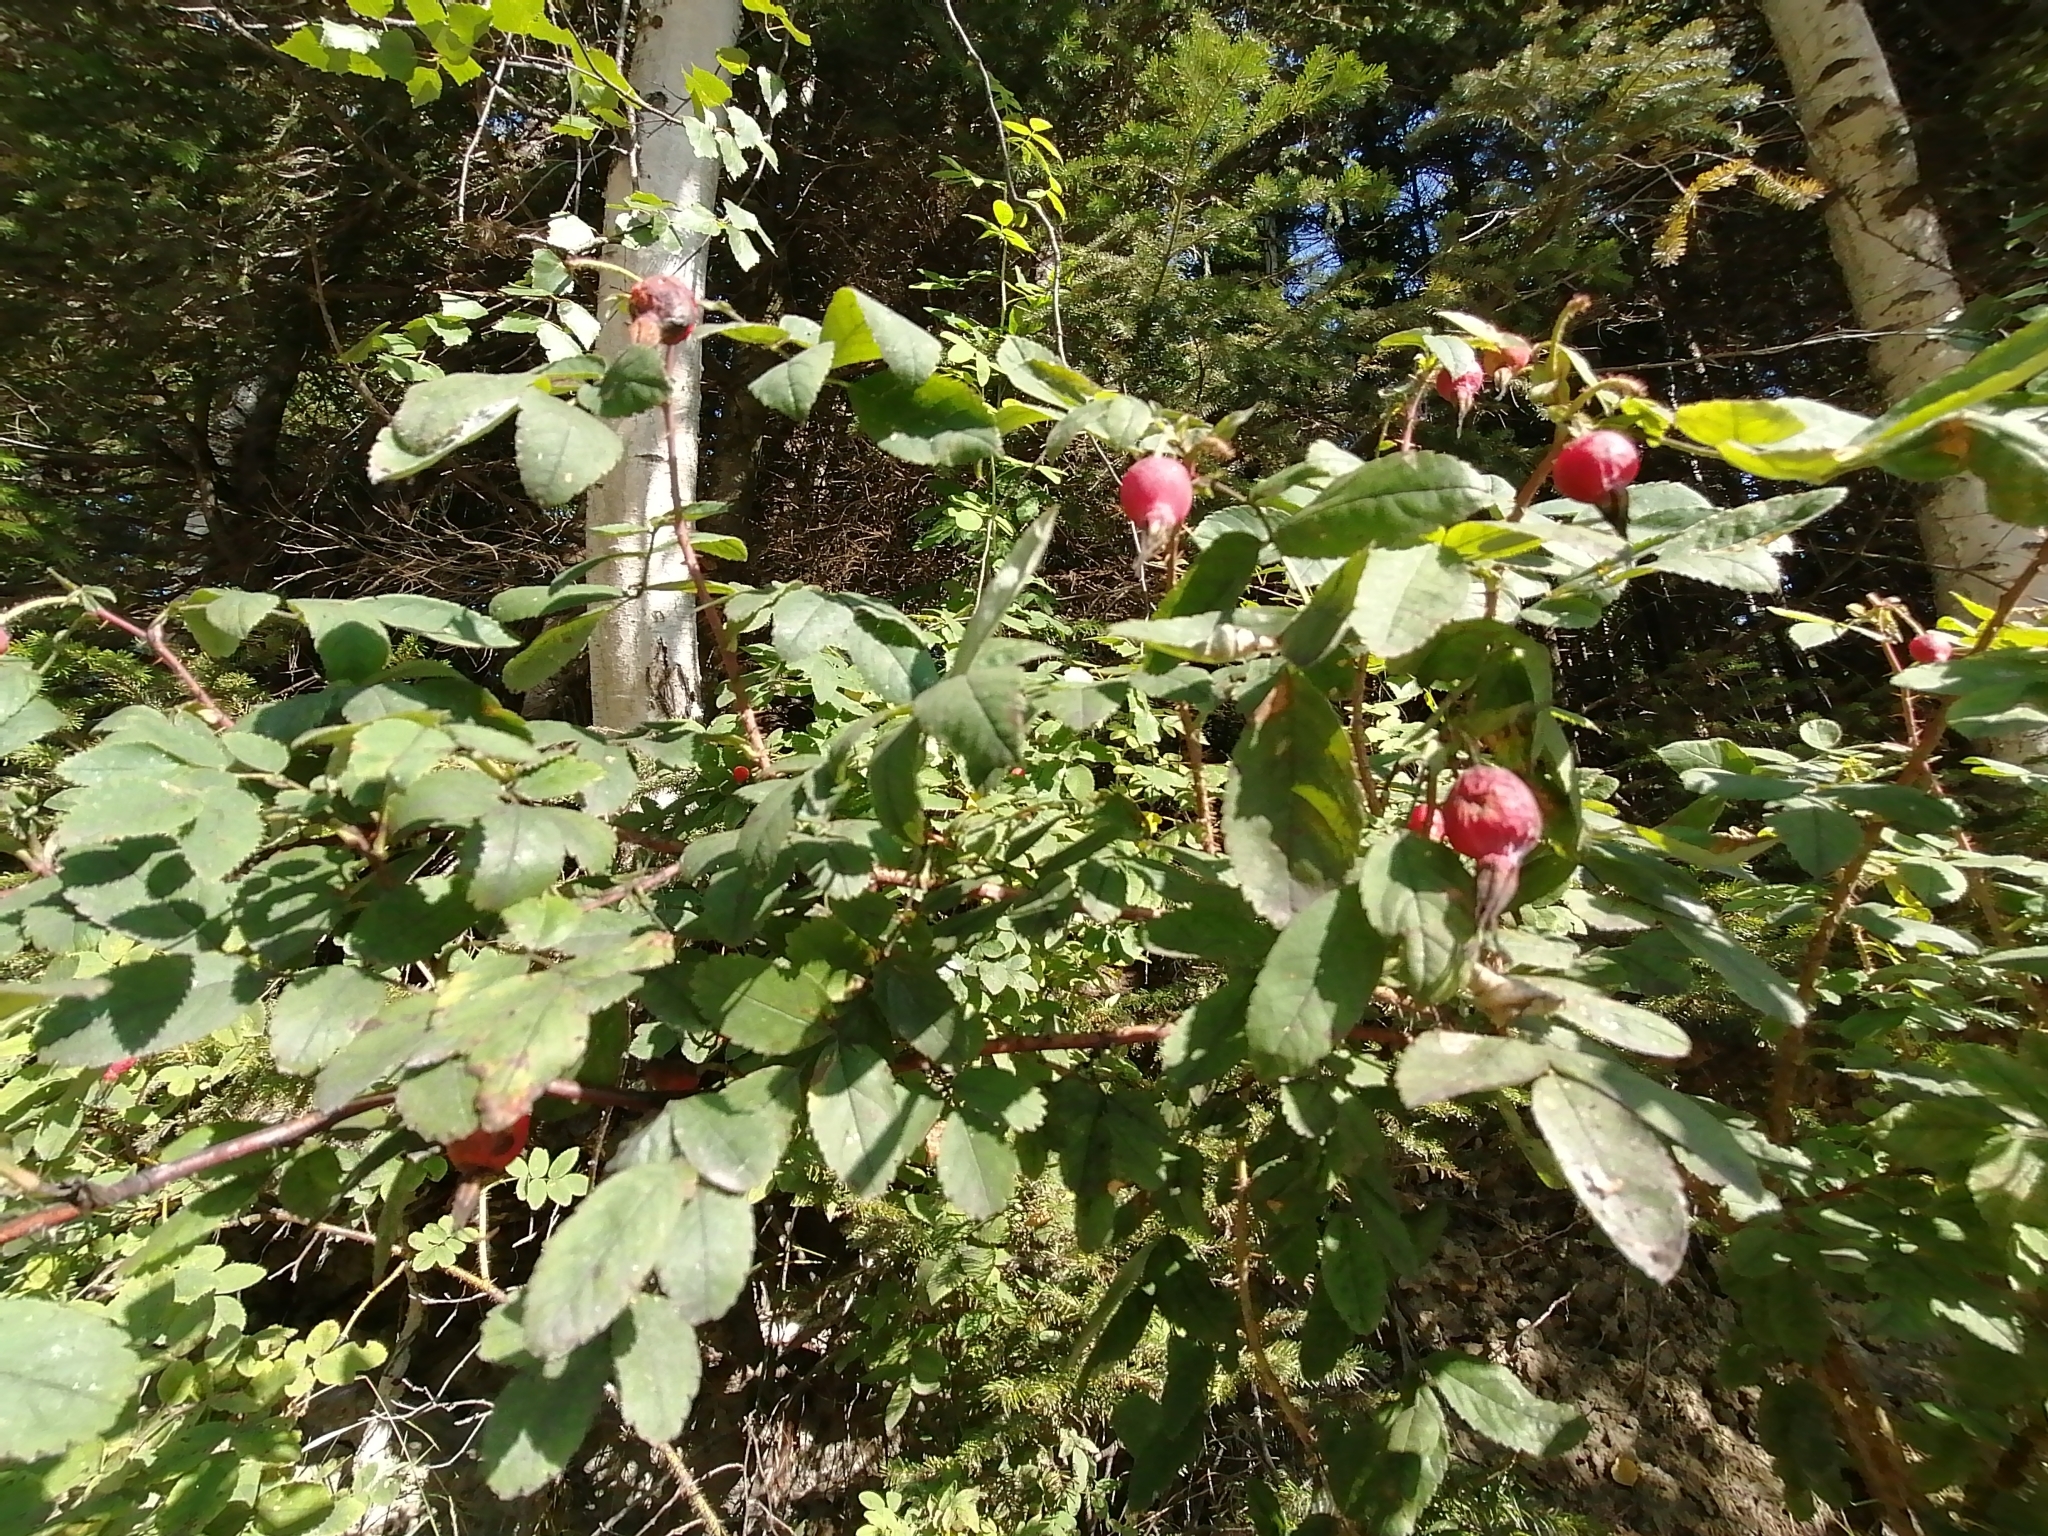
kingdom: Plantae
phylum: Tracheophyta
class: Magnoliopsida
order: Rosales
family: Rosaceae
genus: Rosa
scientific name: Rosa acicularis
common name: Prickly rose
